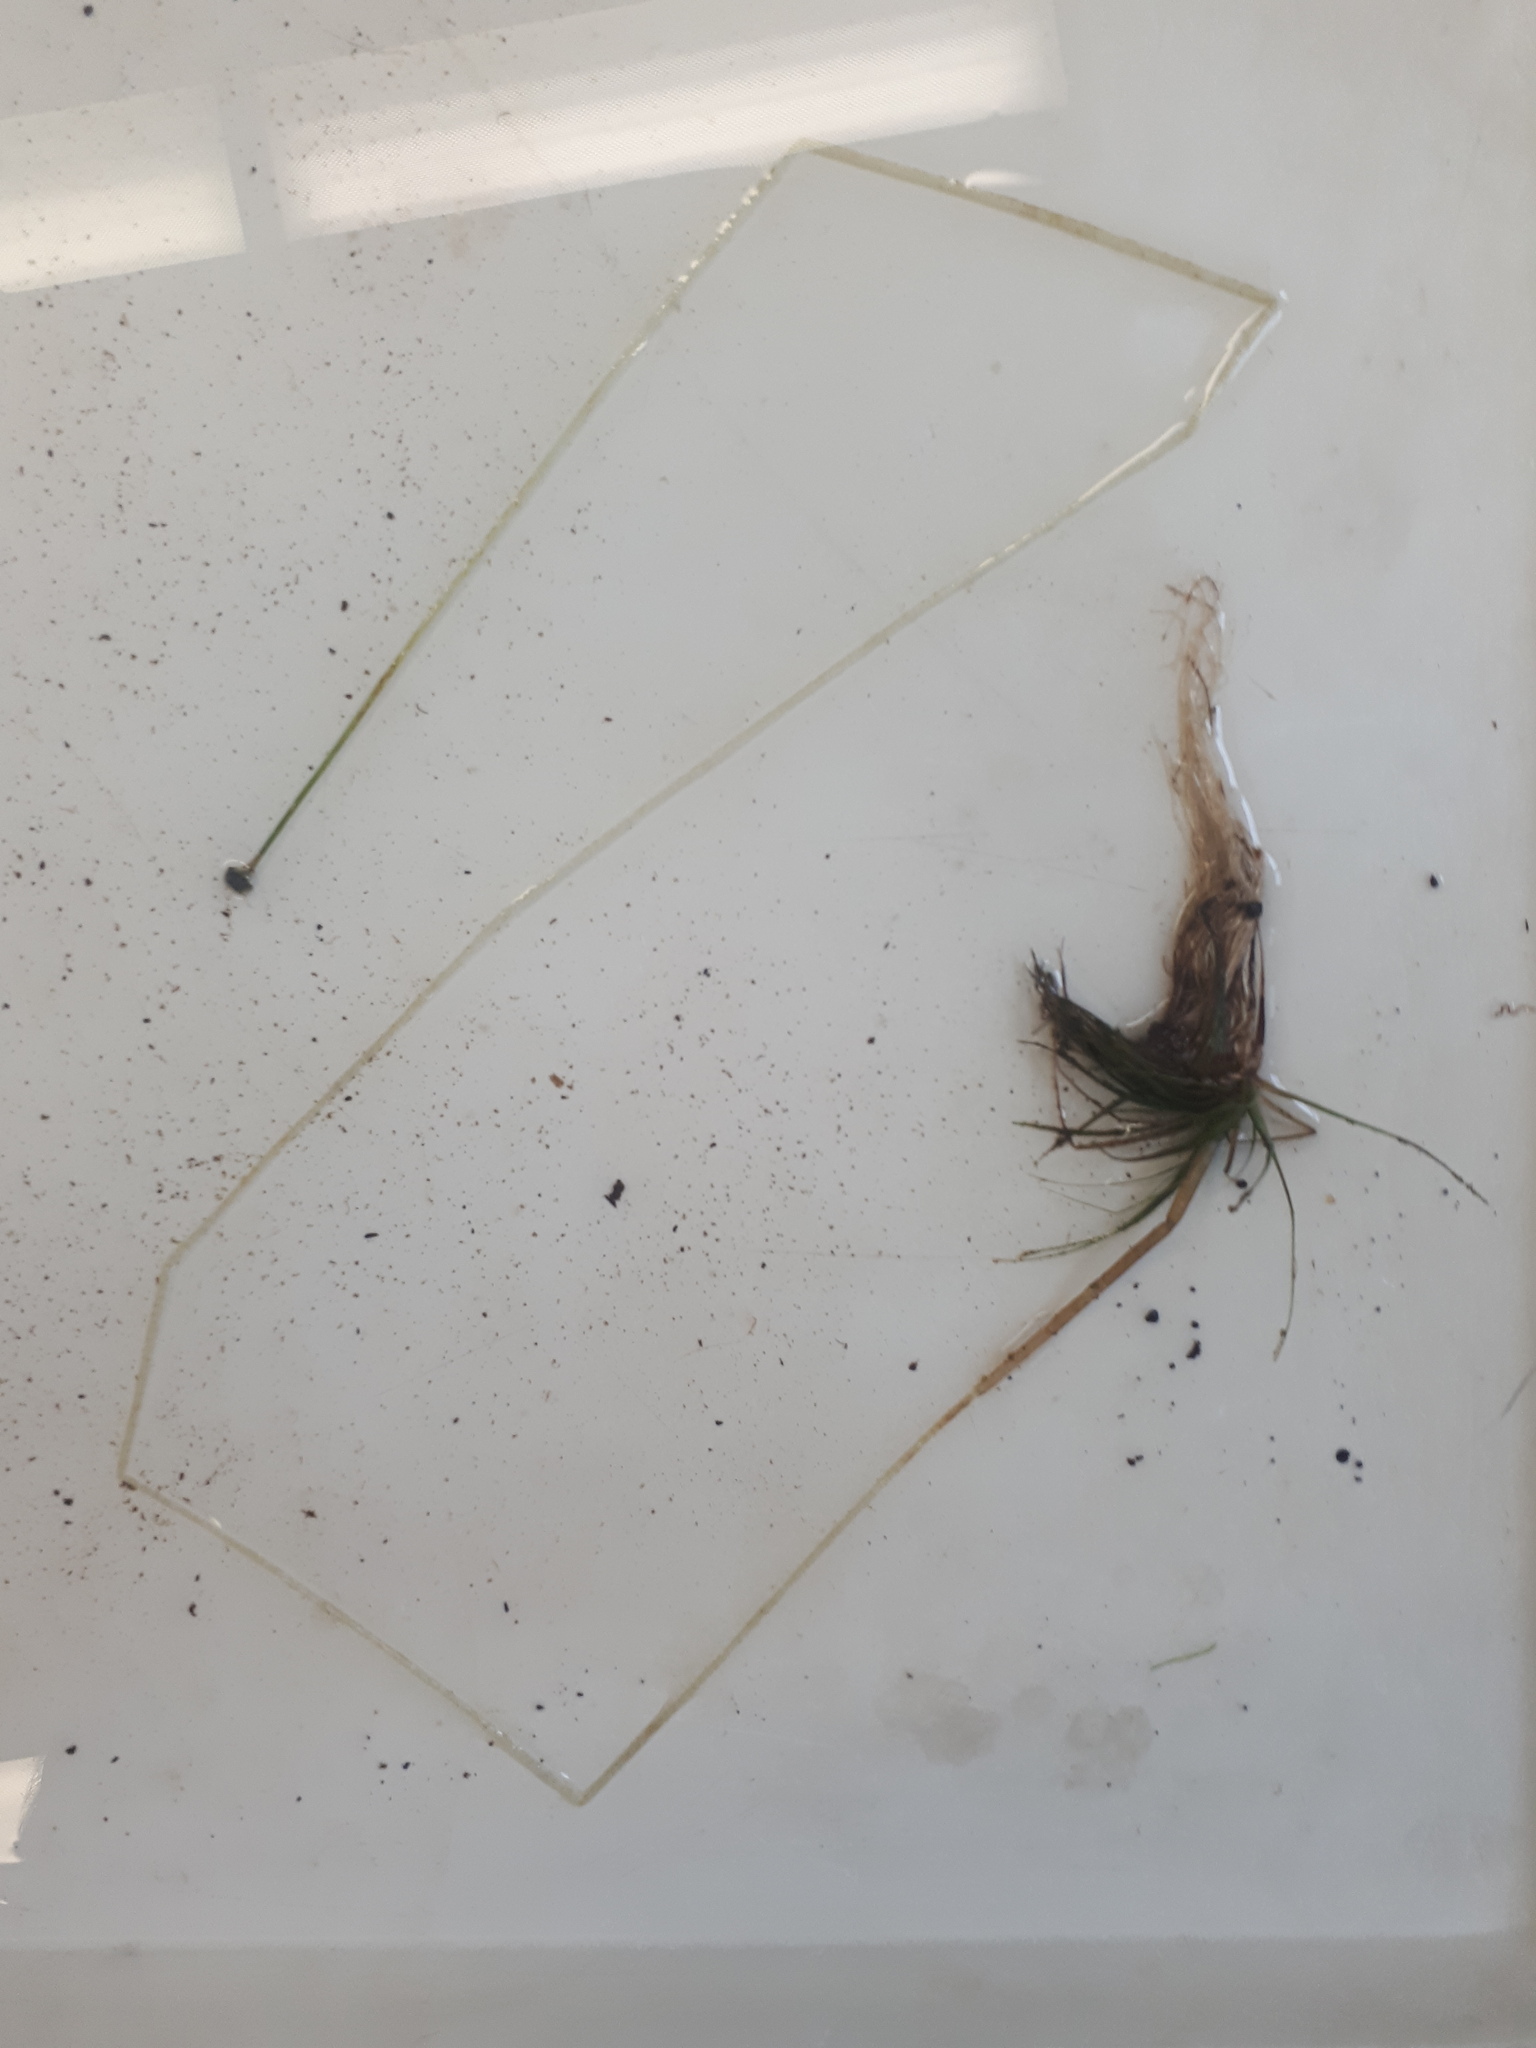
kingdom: Plantae
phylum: Tracheophyta
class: Liliopsida
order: Poales
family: Eriocaulaceae
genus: Eriocaulon
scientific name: Eriocaulon aquaticum
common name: Pipewort
